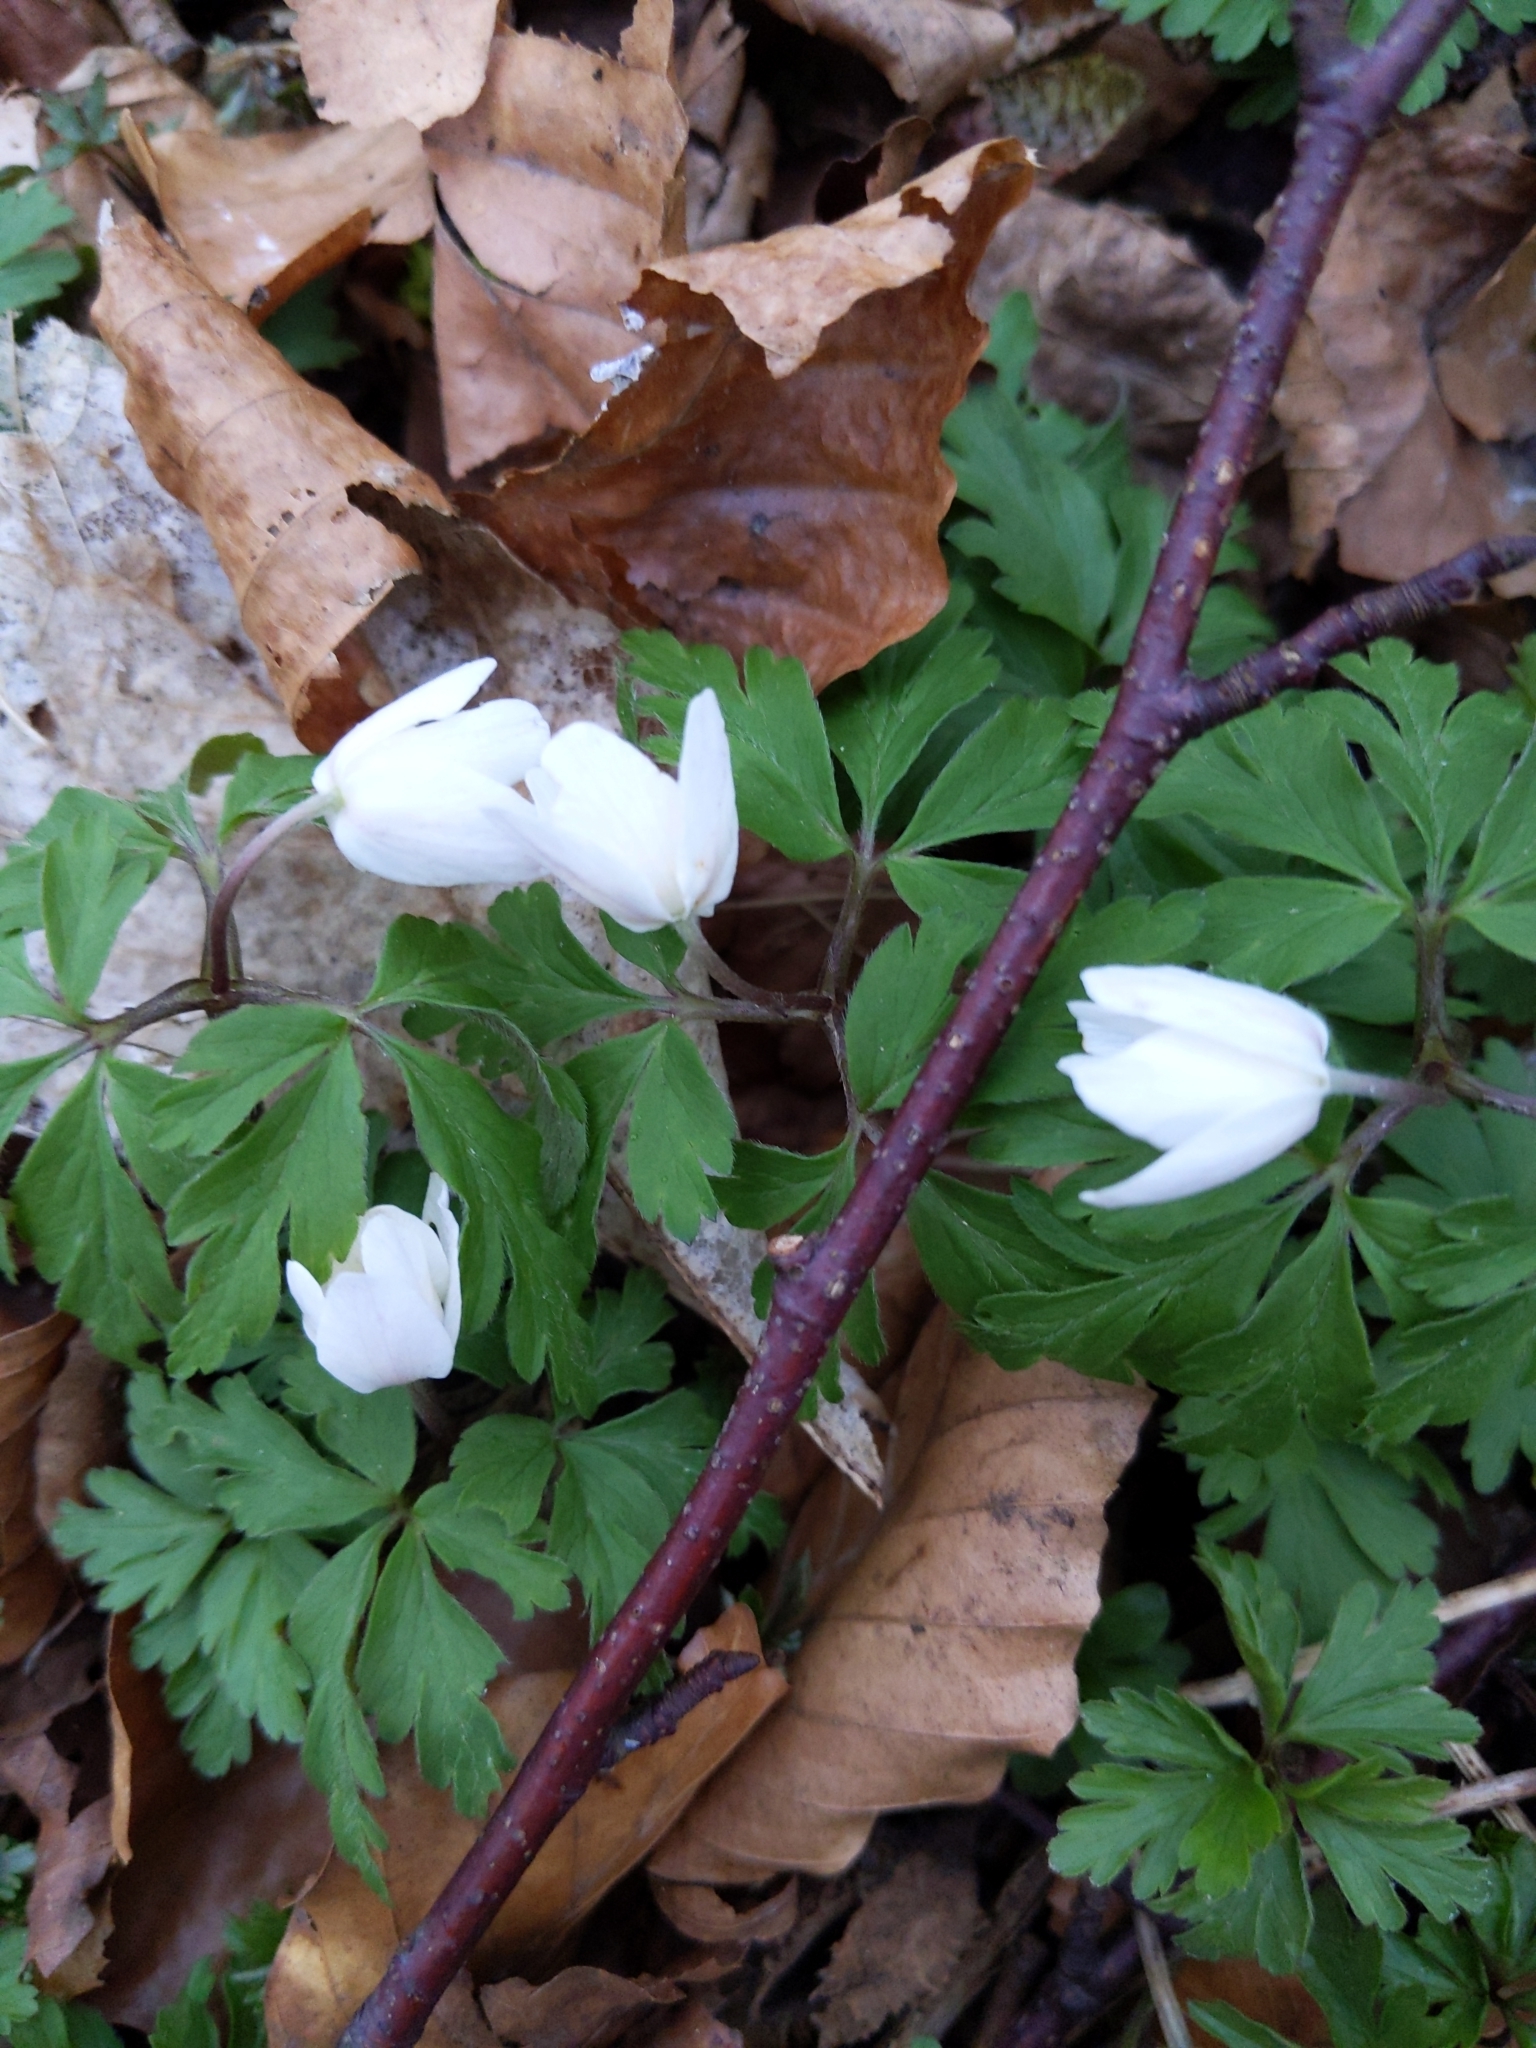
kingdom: Plantae
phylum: Tracheophyta
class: Magnoliopsida
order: Ranunculales
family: Ranunculaceae
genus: Anemone
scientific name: Anemone nemorosa
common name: Wood anemone
